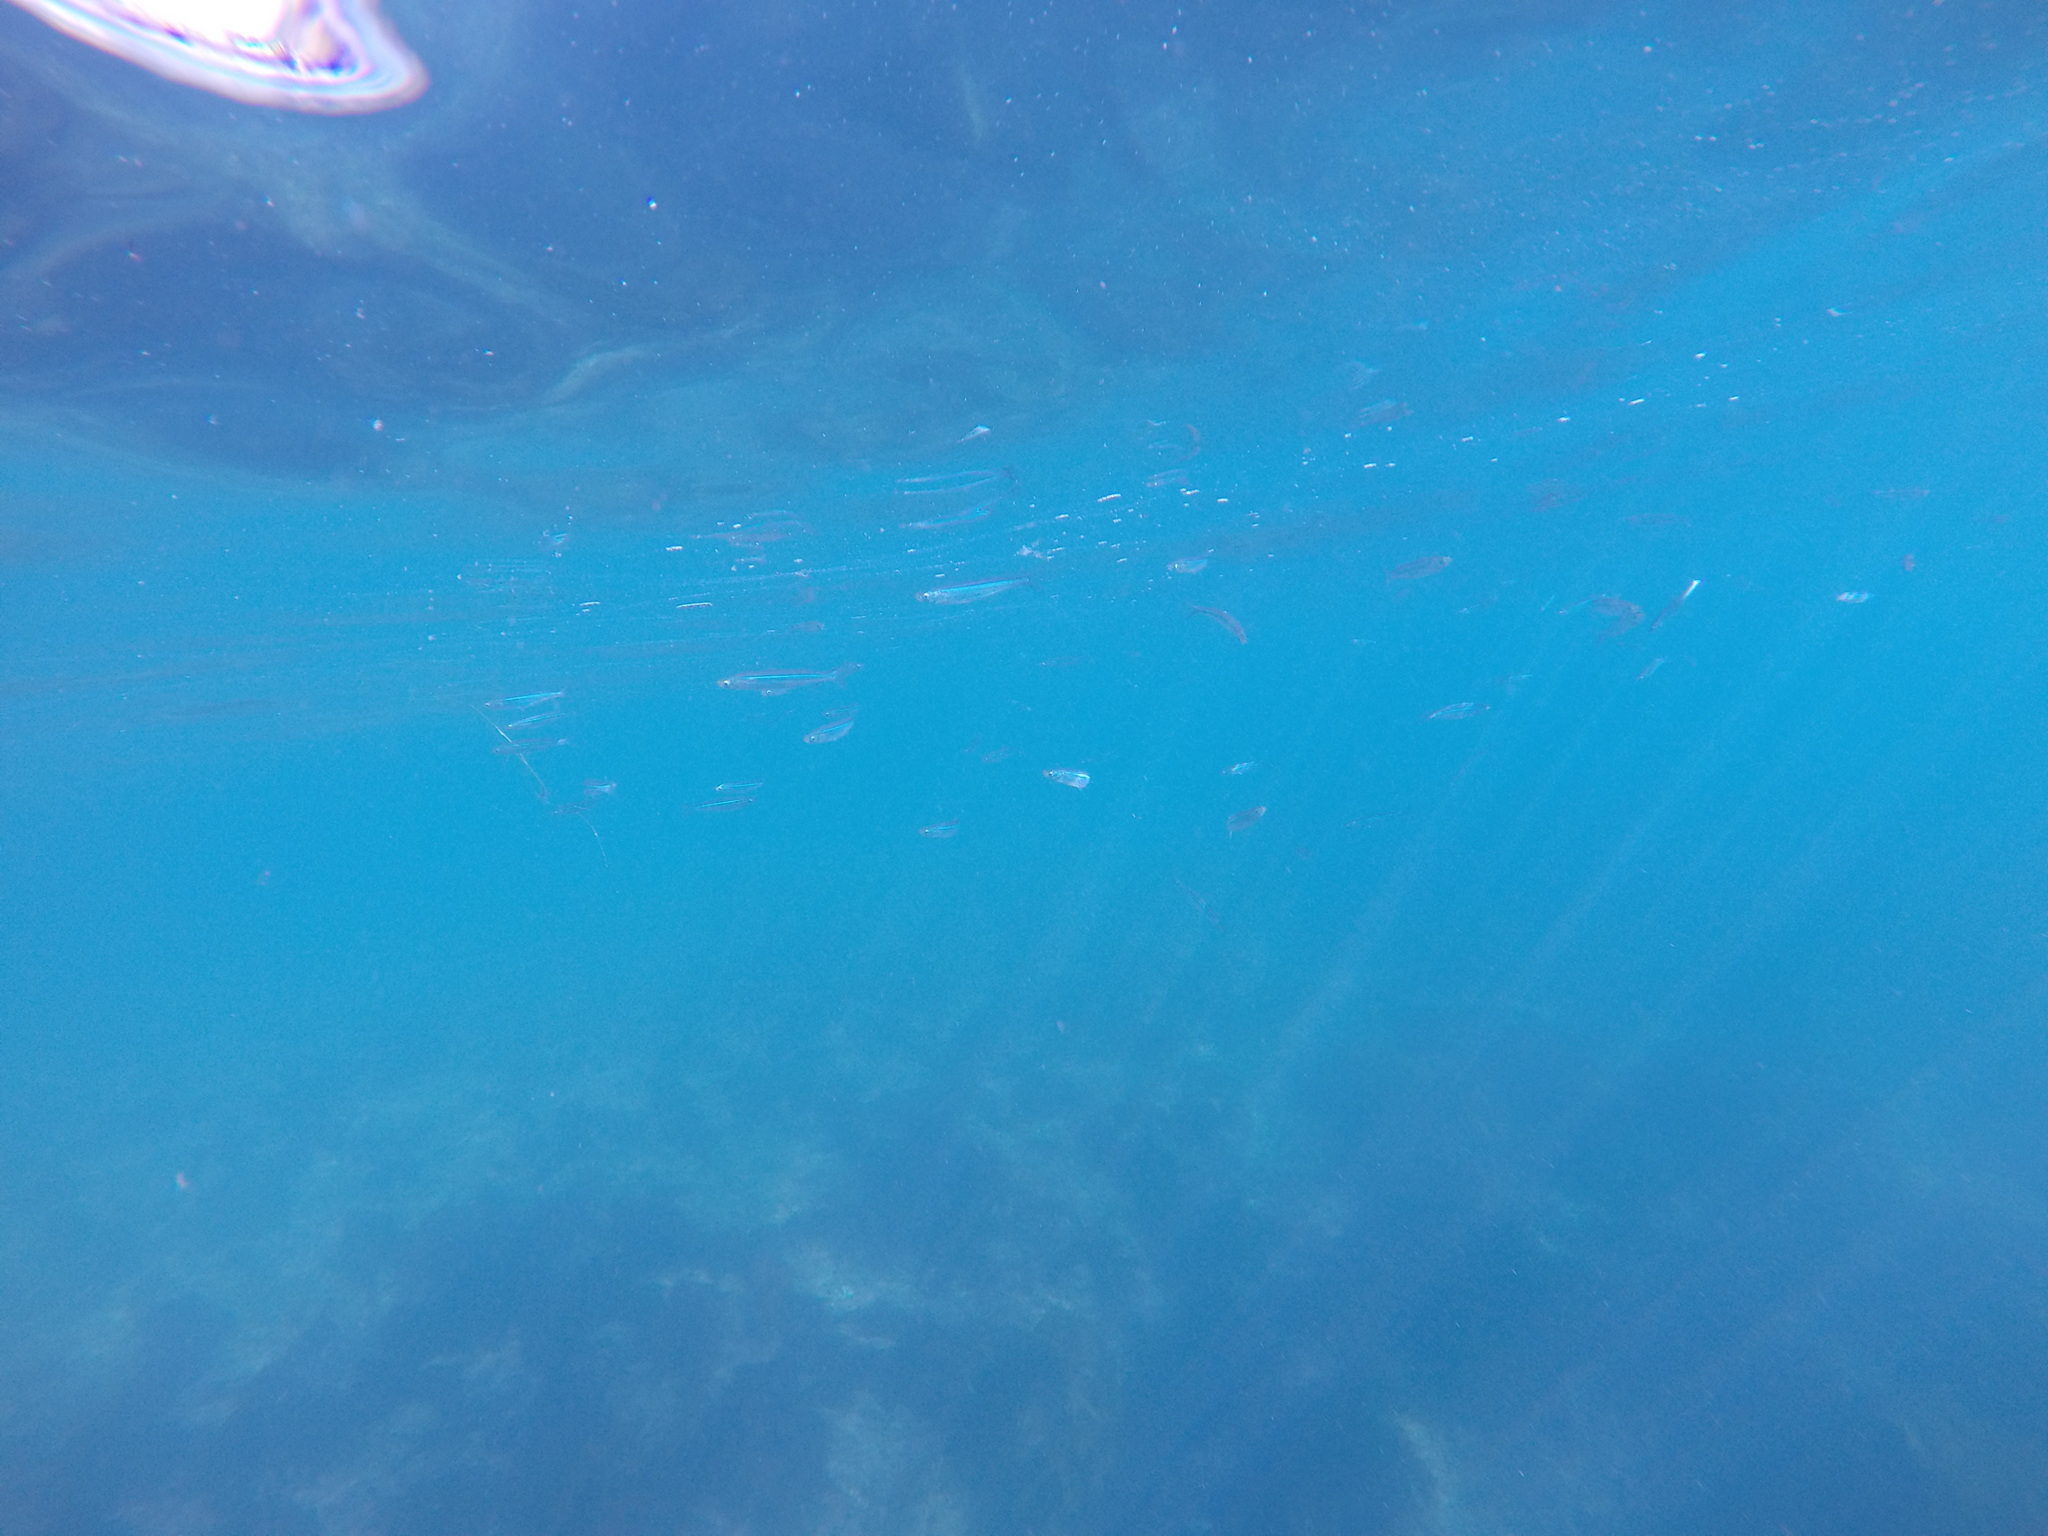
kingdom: Animalia
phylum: Chordata
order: Atheriniformes
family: Atherinopsidae
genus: Atherinops
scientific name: Atherinops affinis
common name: Topsmelt
